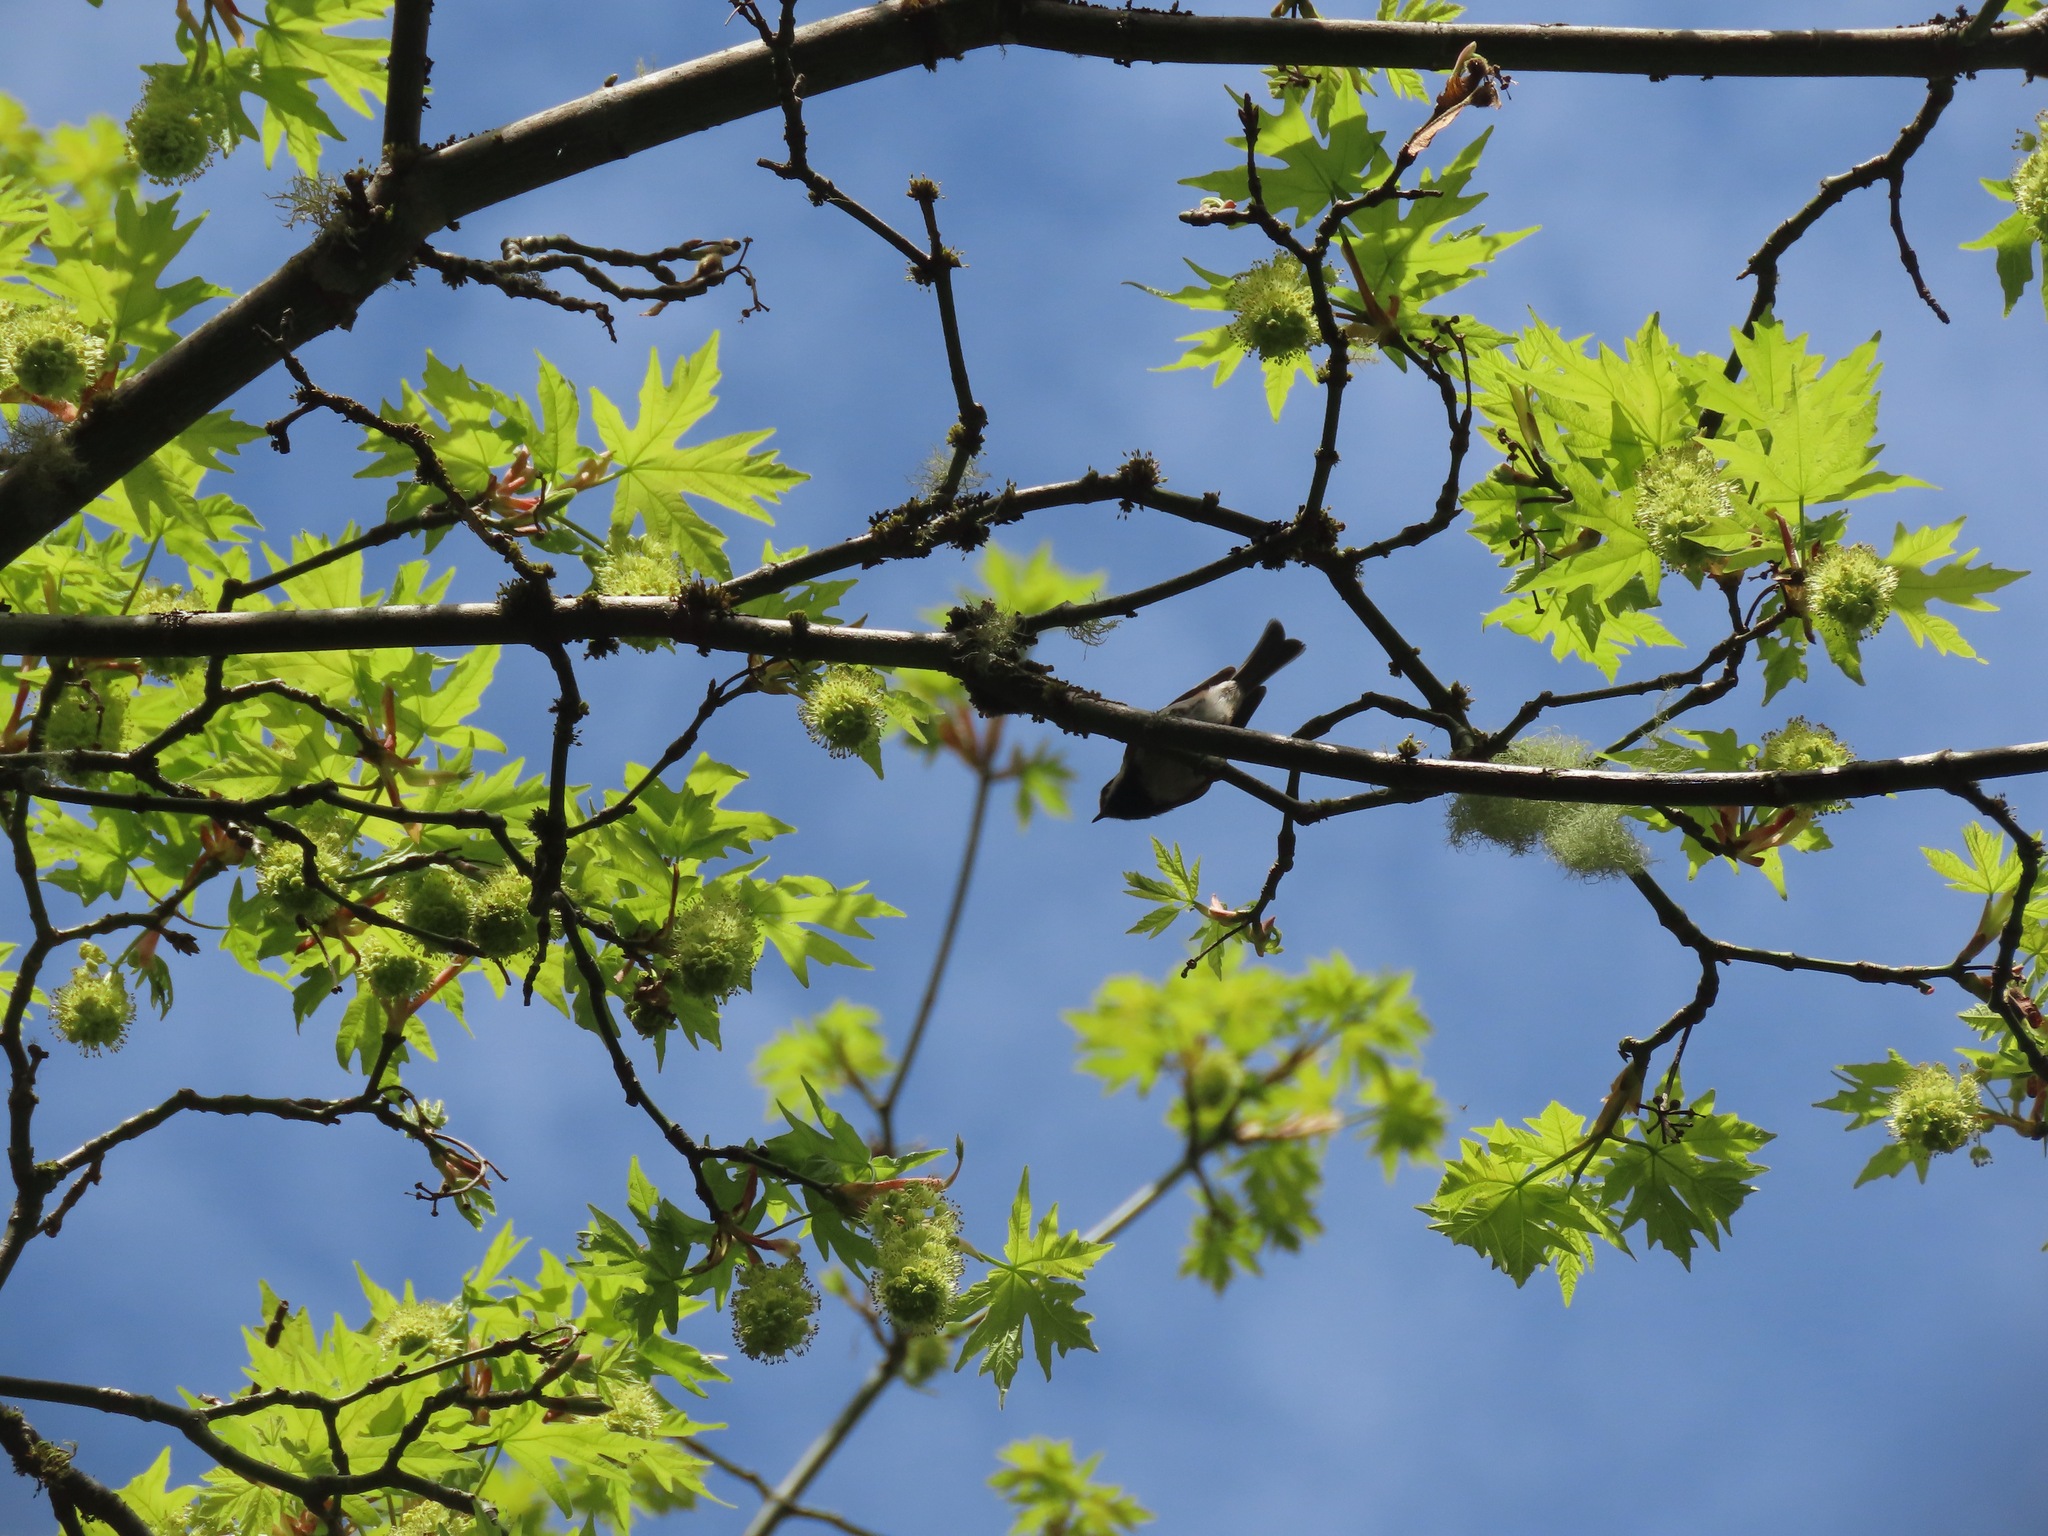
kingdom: Animalia
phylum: Chordata
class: Aves
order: Passeriformes
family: Paridae
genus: Poecile
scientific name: Poecile rufescens
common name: Chestnut-backed chickadee
